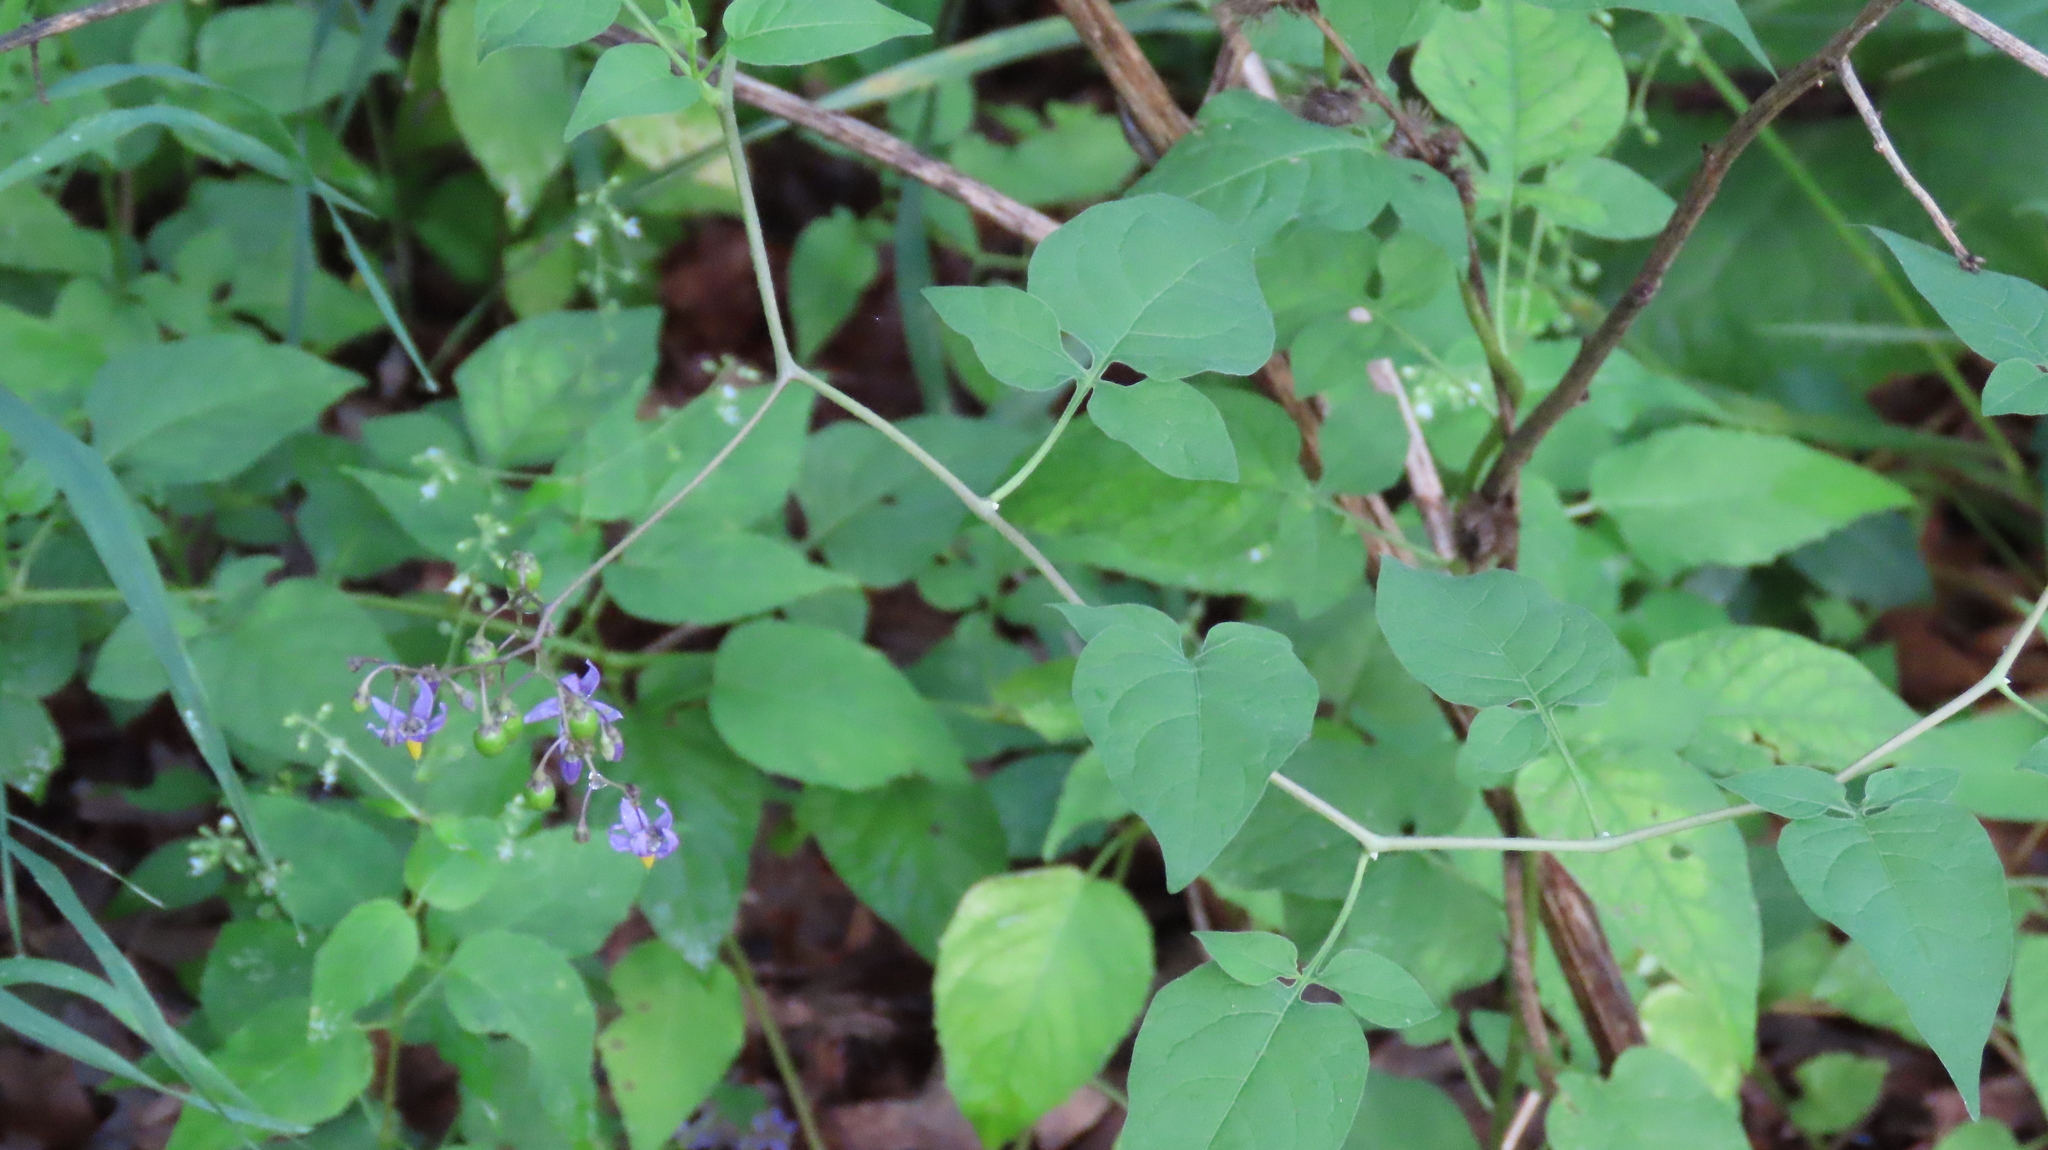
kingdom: Plantae
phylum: Tracheophyta
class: Magnoliopsida
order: Solanales
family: Solanaceae
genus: Solanum
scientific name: Solanum dulcamara
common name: Climbing nightshade
